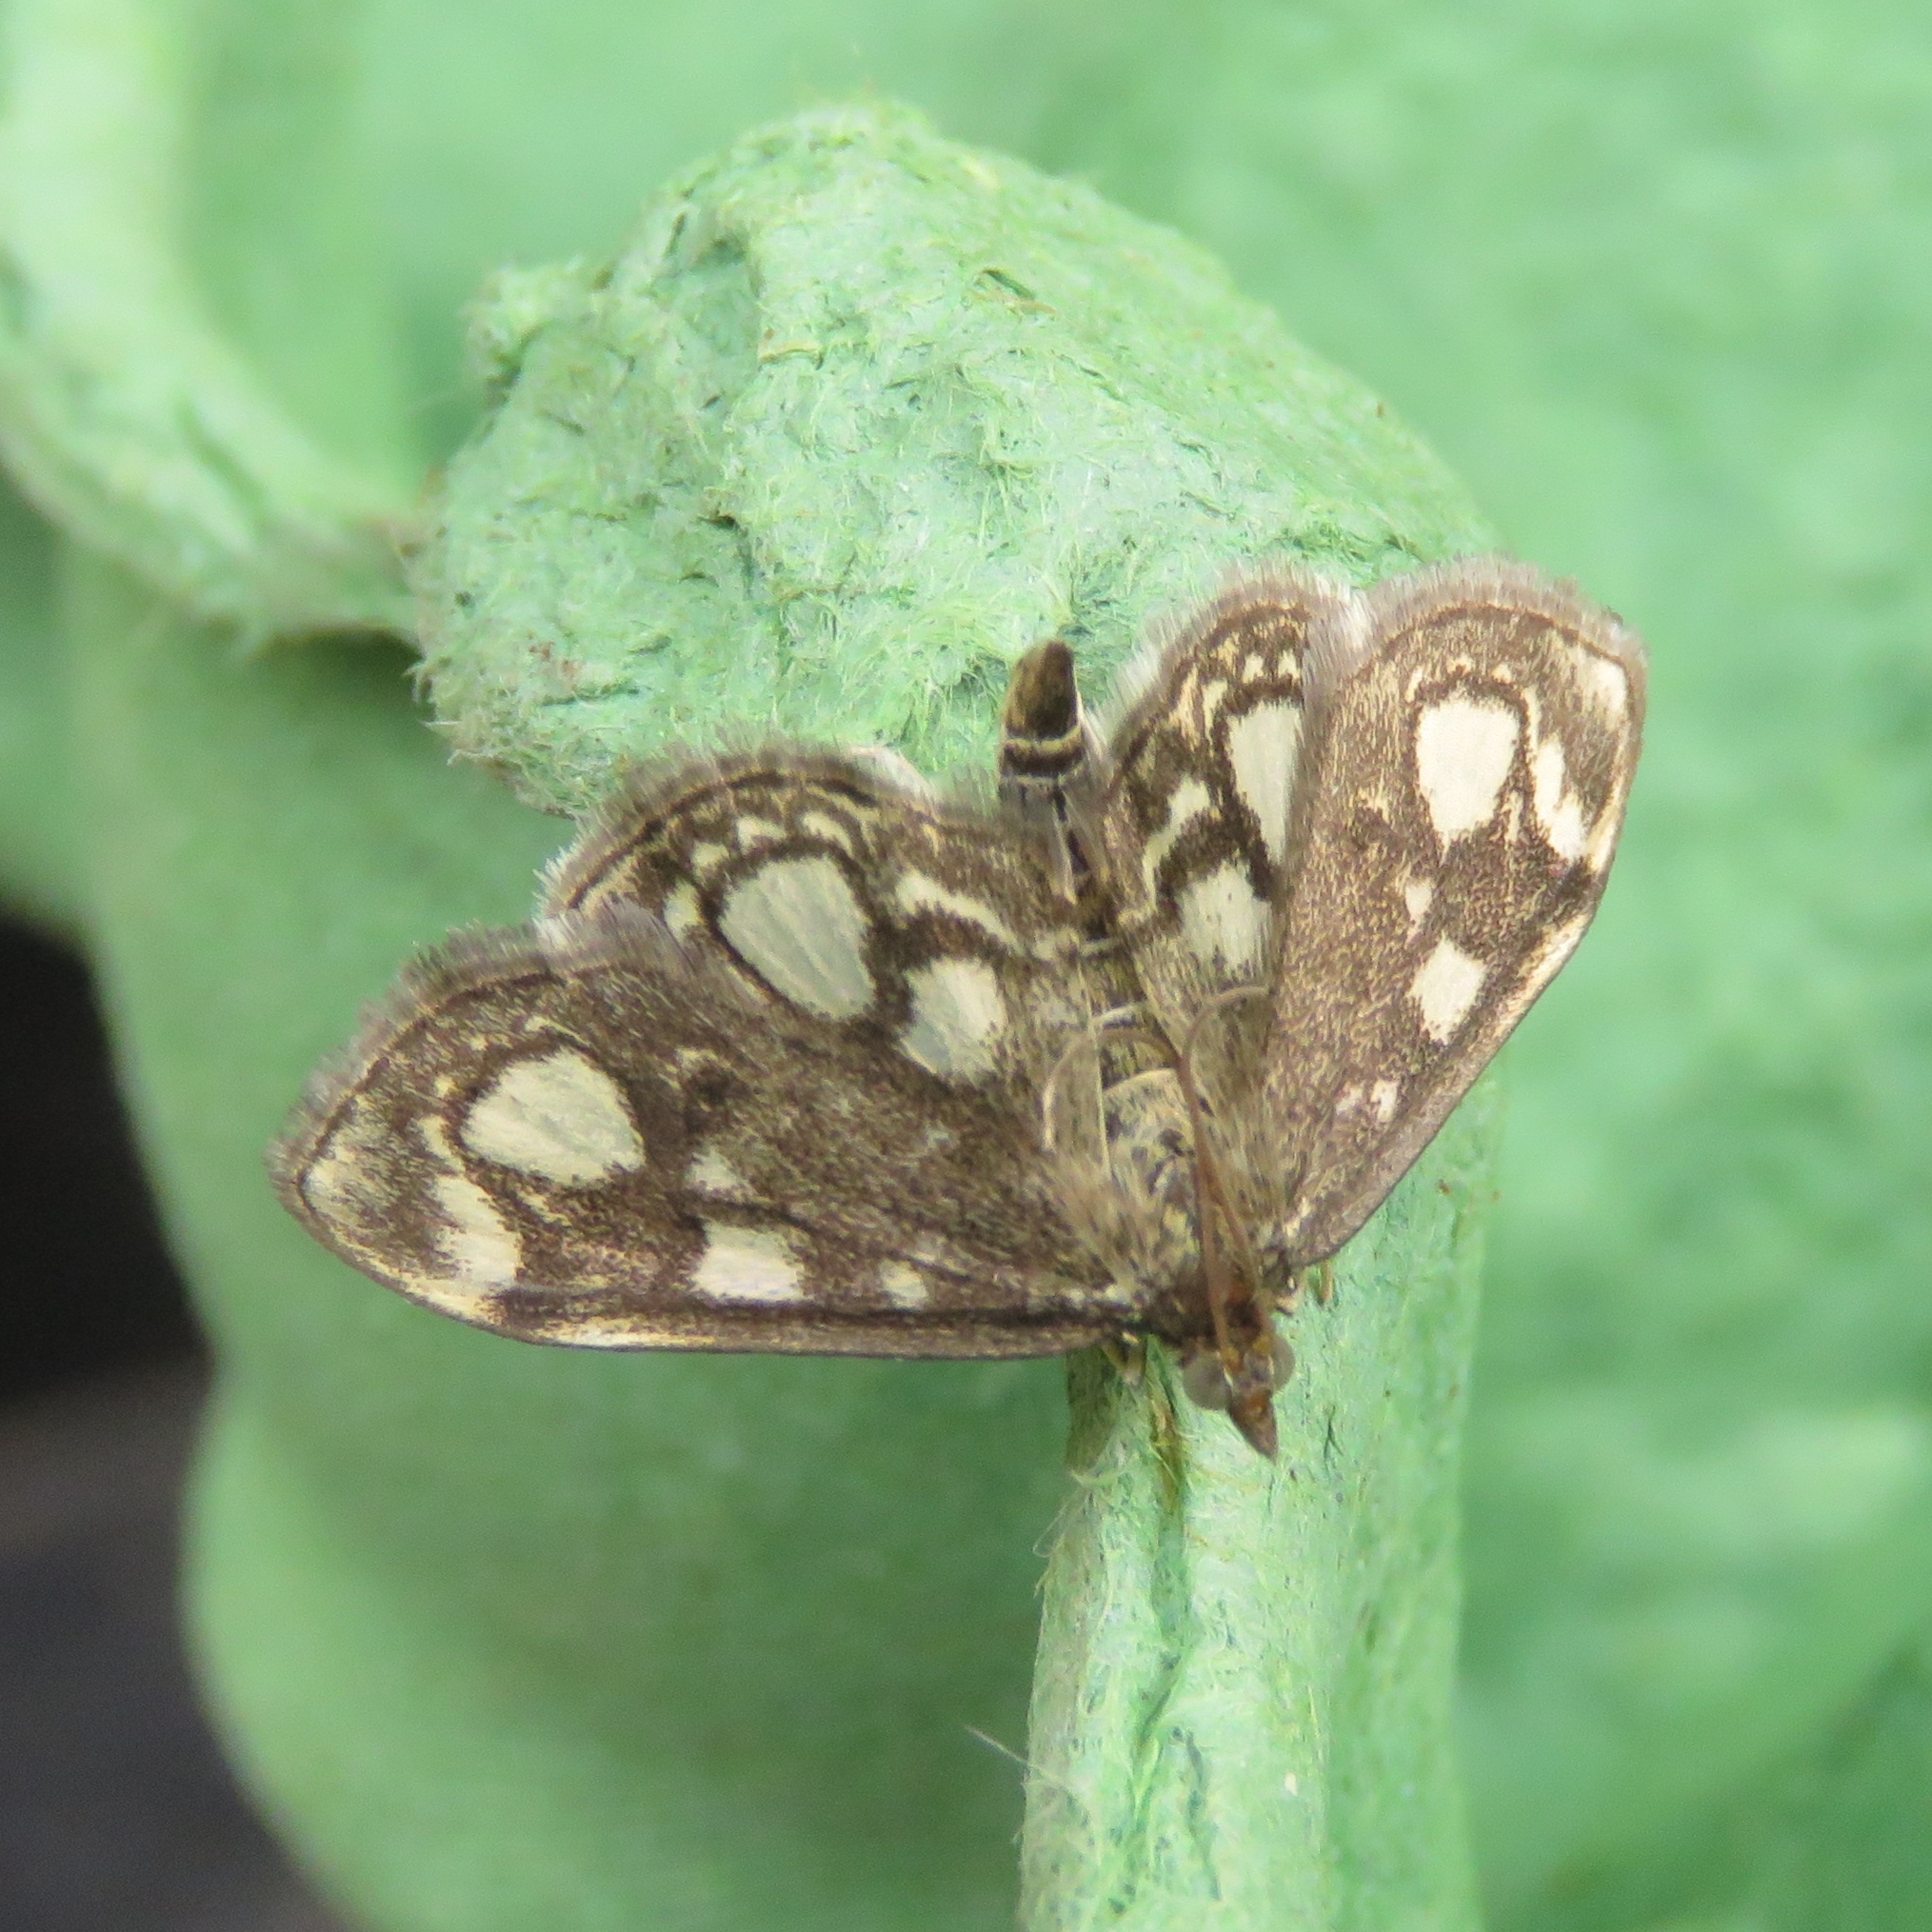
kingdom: Animalia
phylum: Arthropoda
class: Insecta
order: Lepidoptera
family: Crambidae
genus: Anania
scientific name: Anania coronata
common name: Elder pearl
